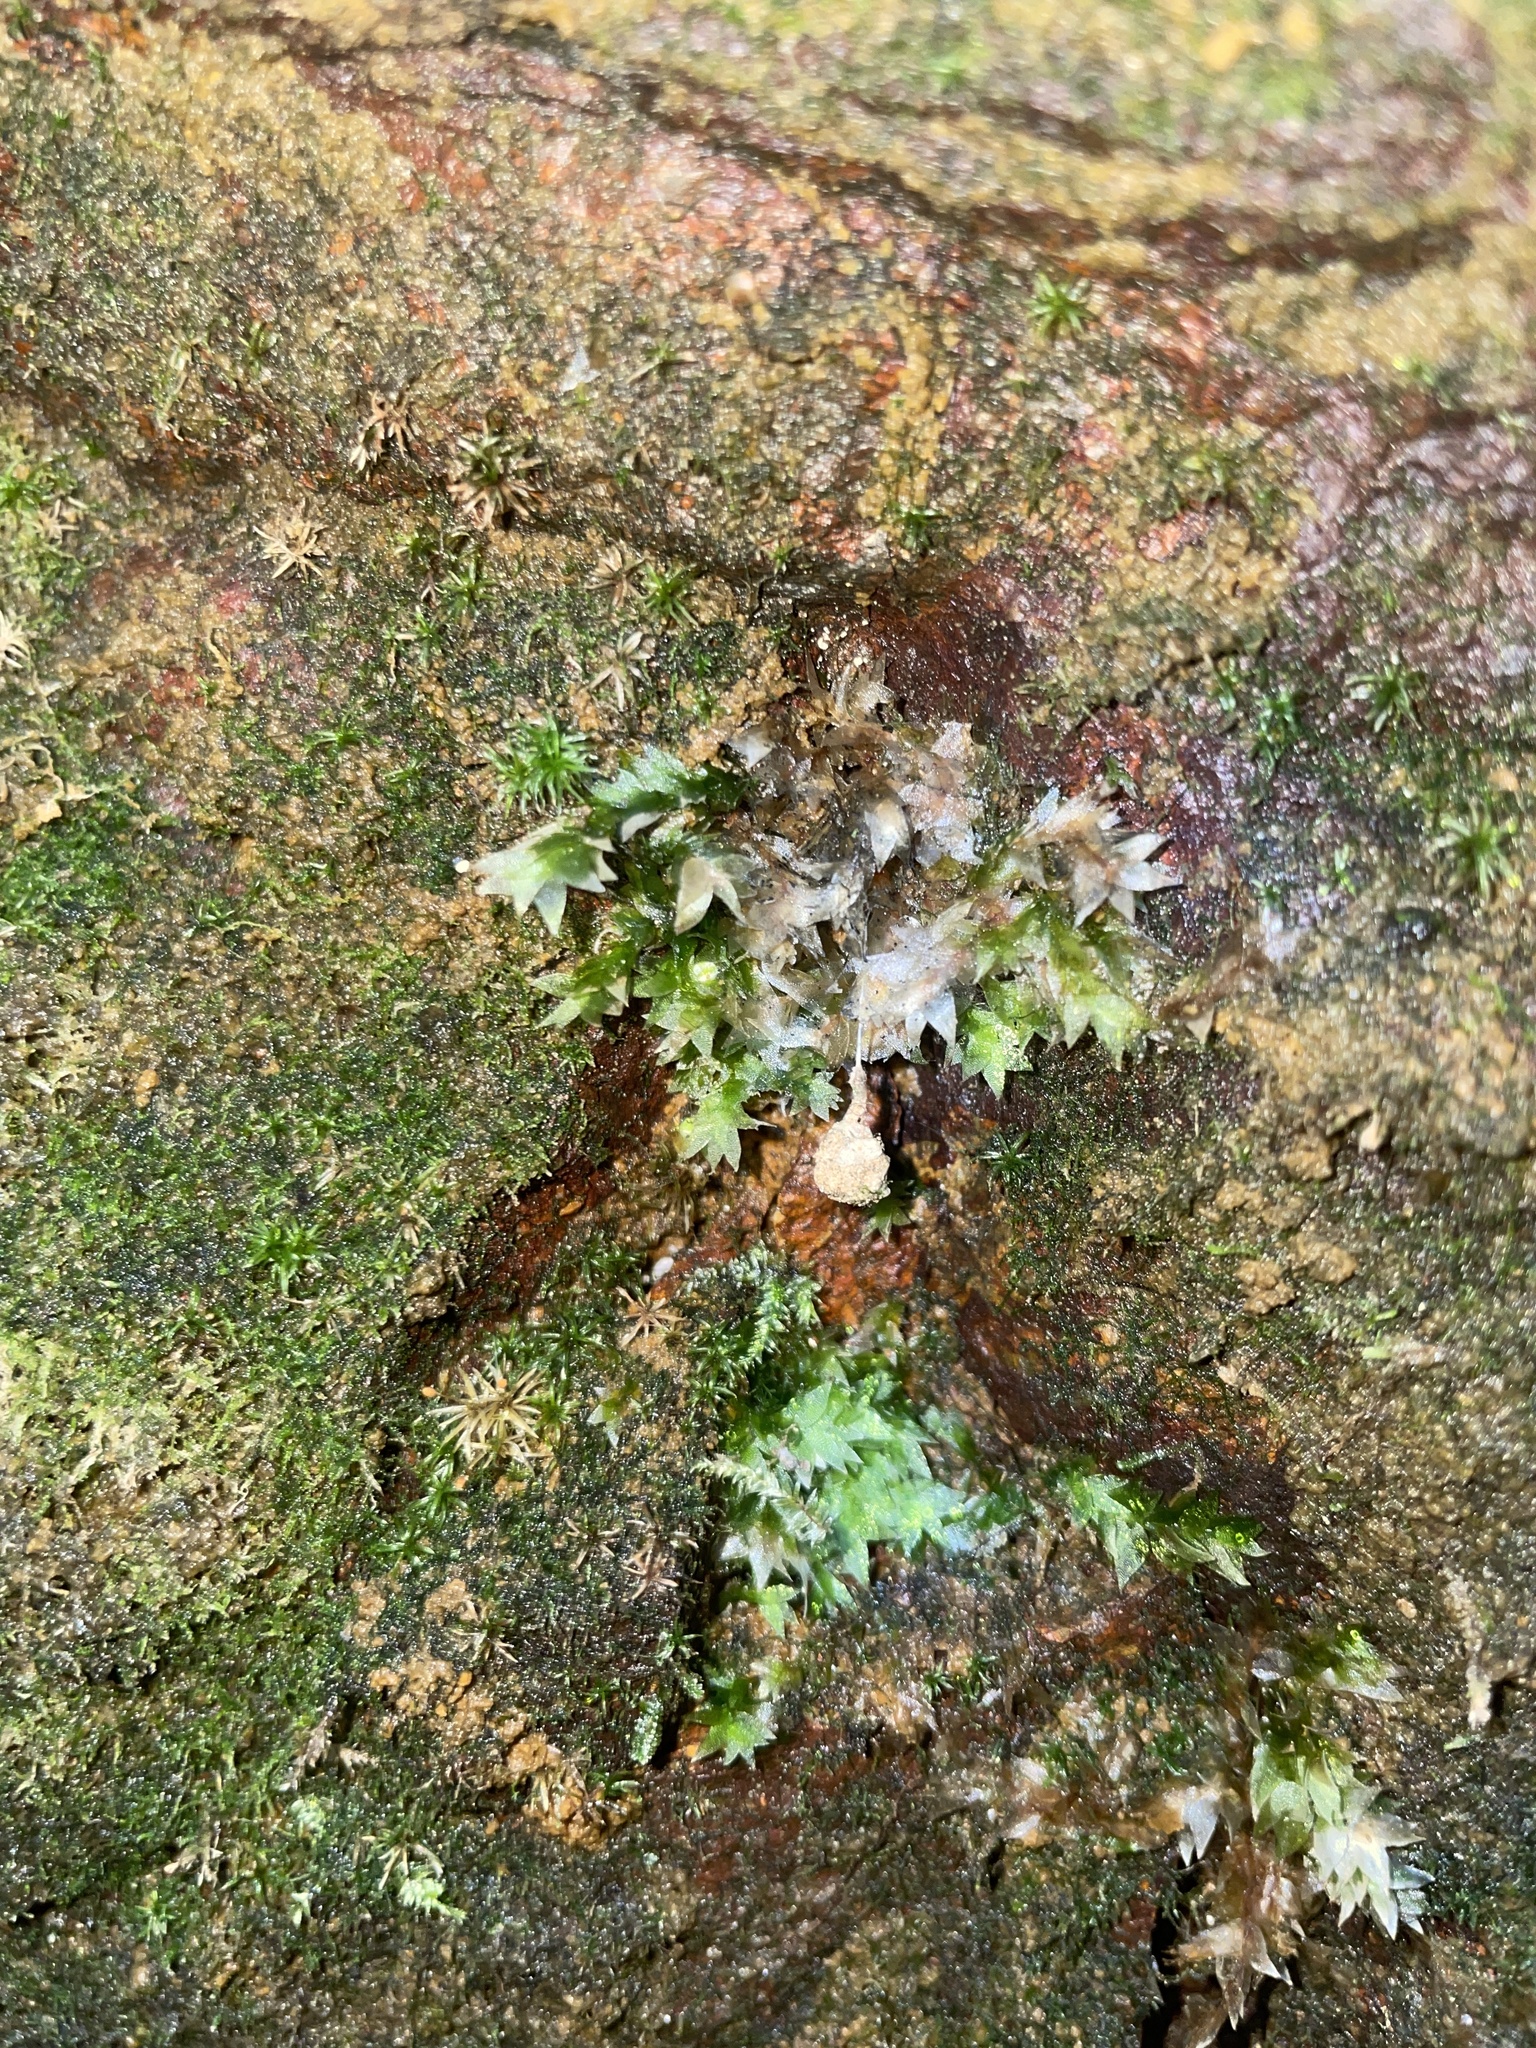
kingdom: Plantae
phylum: Bryophyta
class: Bryopsida
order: Hookeriales
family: Hookeriaceae
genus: Hookeria
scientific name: Hookeria acutifolia
